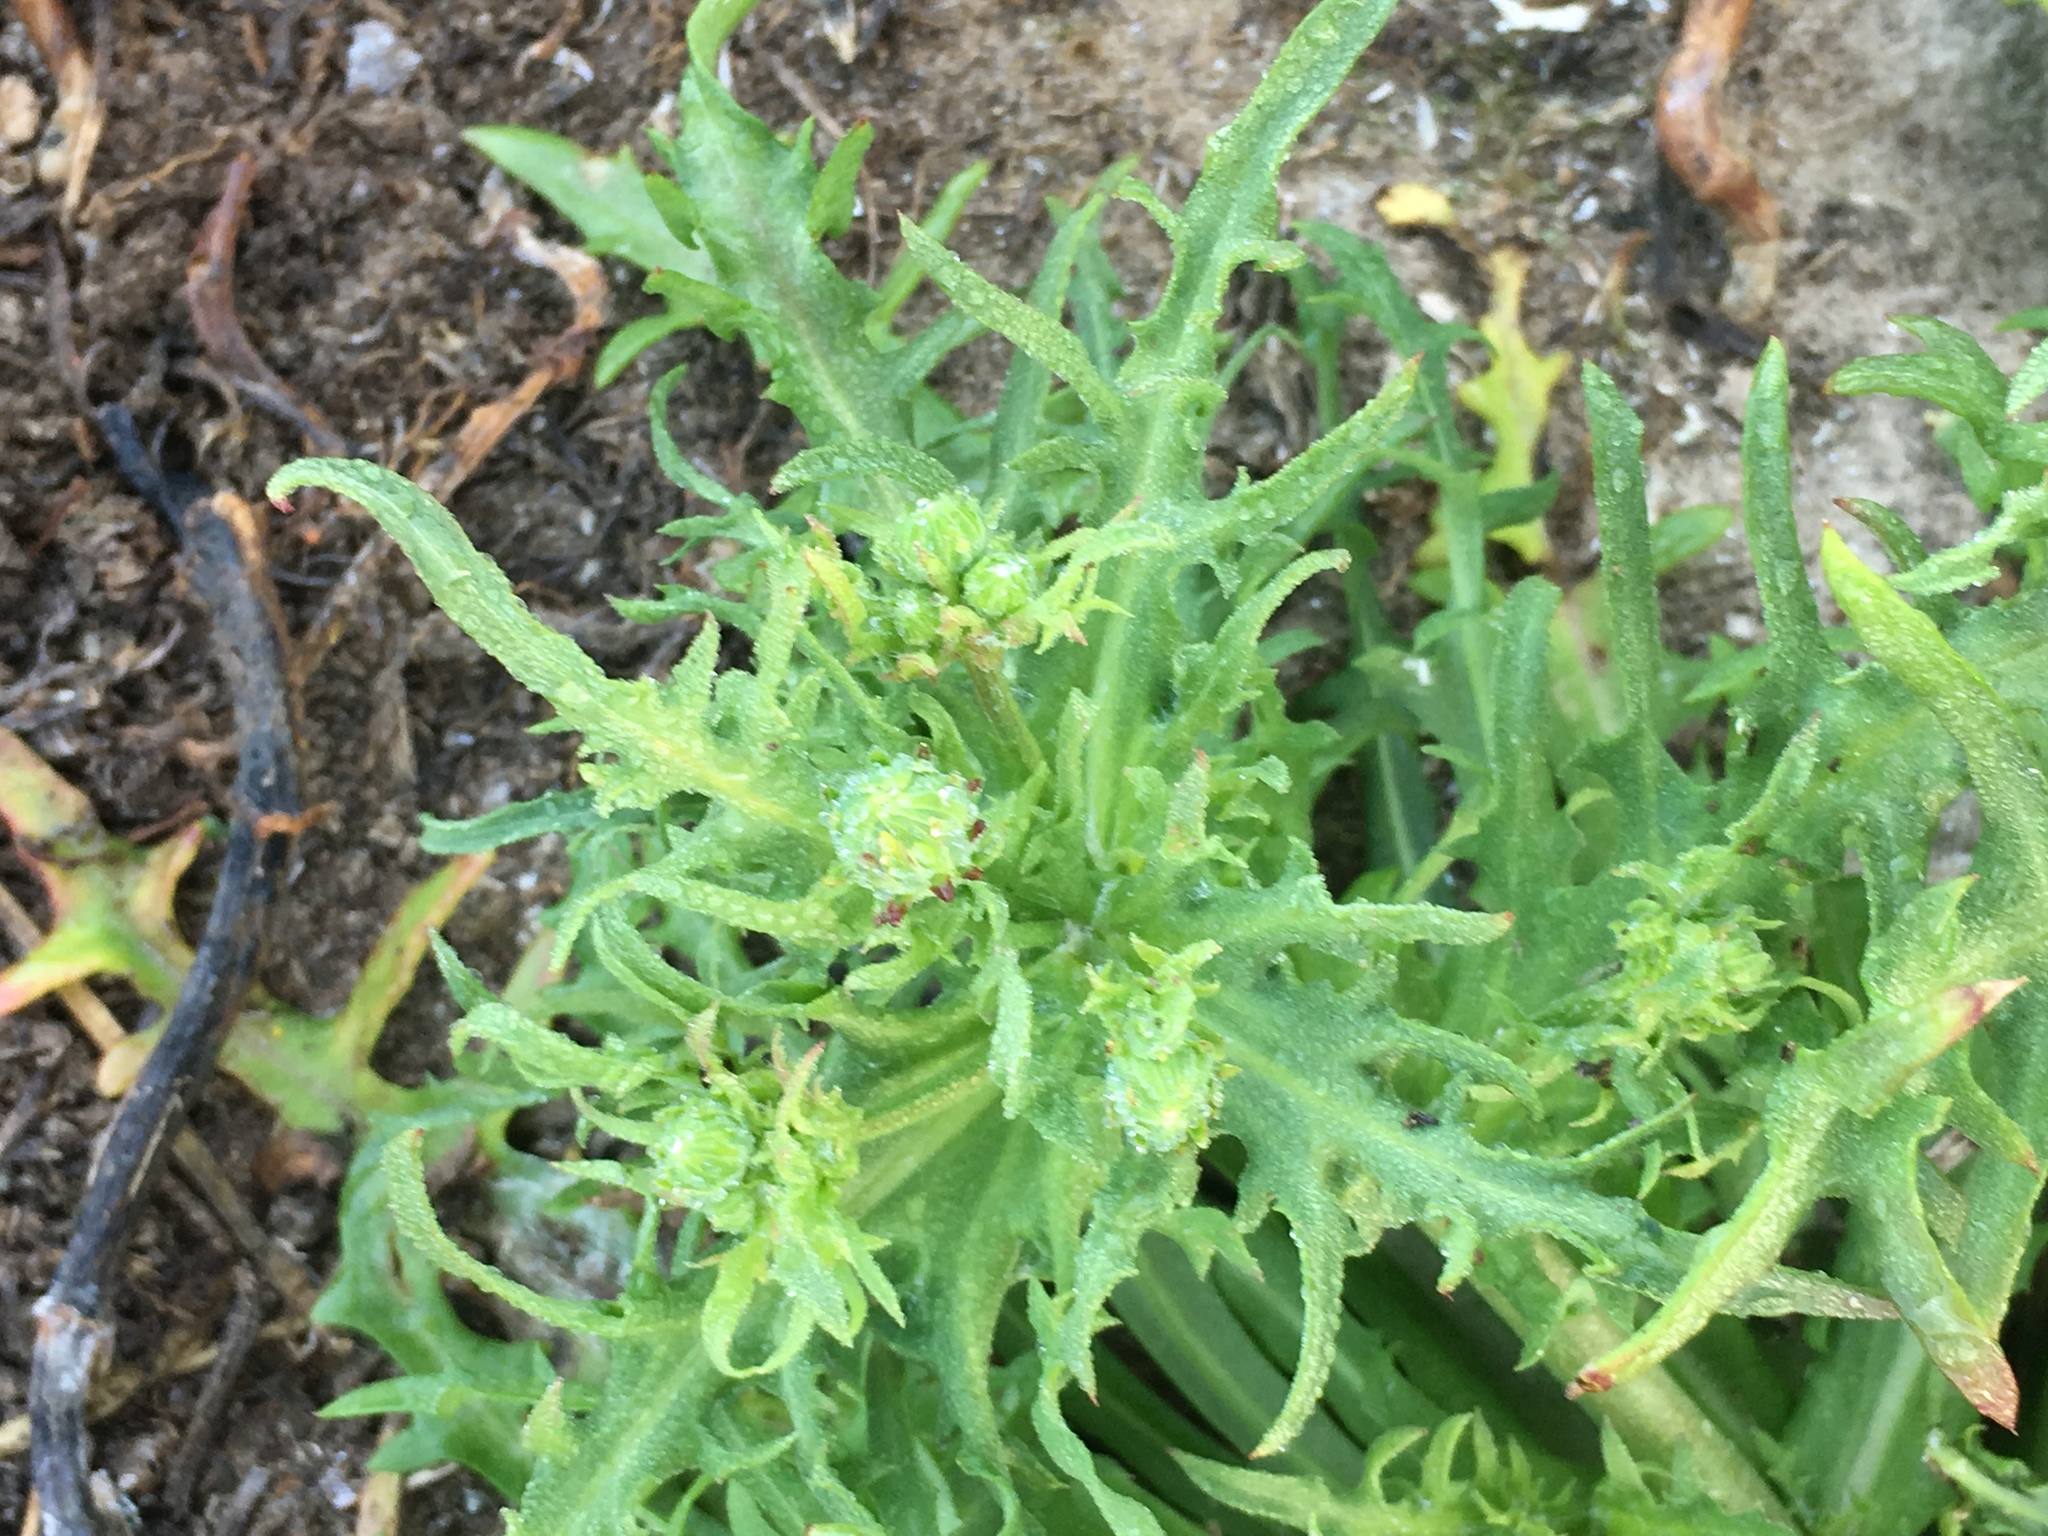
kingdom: Plantae
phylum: Tracheophyta
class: Magnoliopsida
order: Asterales
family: Asteraceae
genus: Malacothrix
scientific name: Malacothrix foliosa
